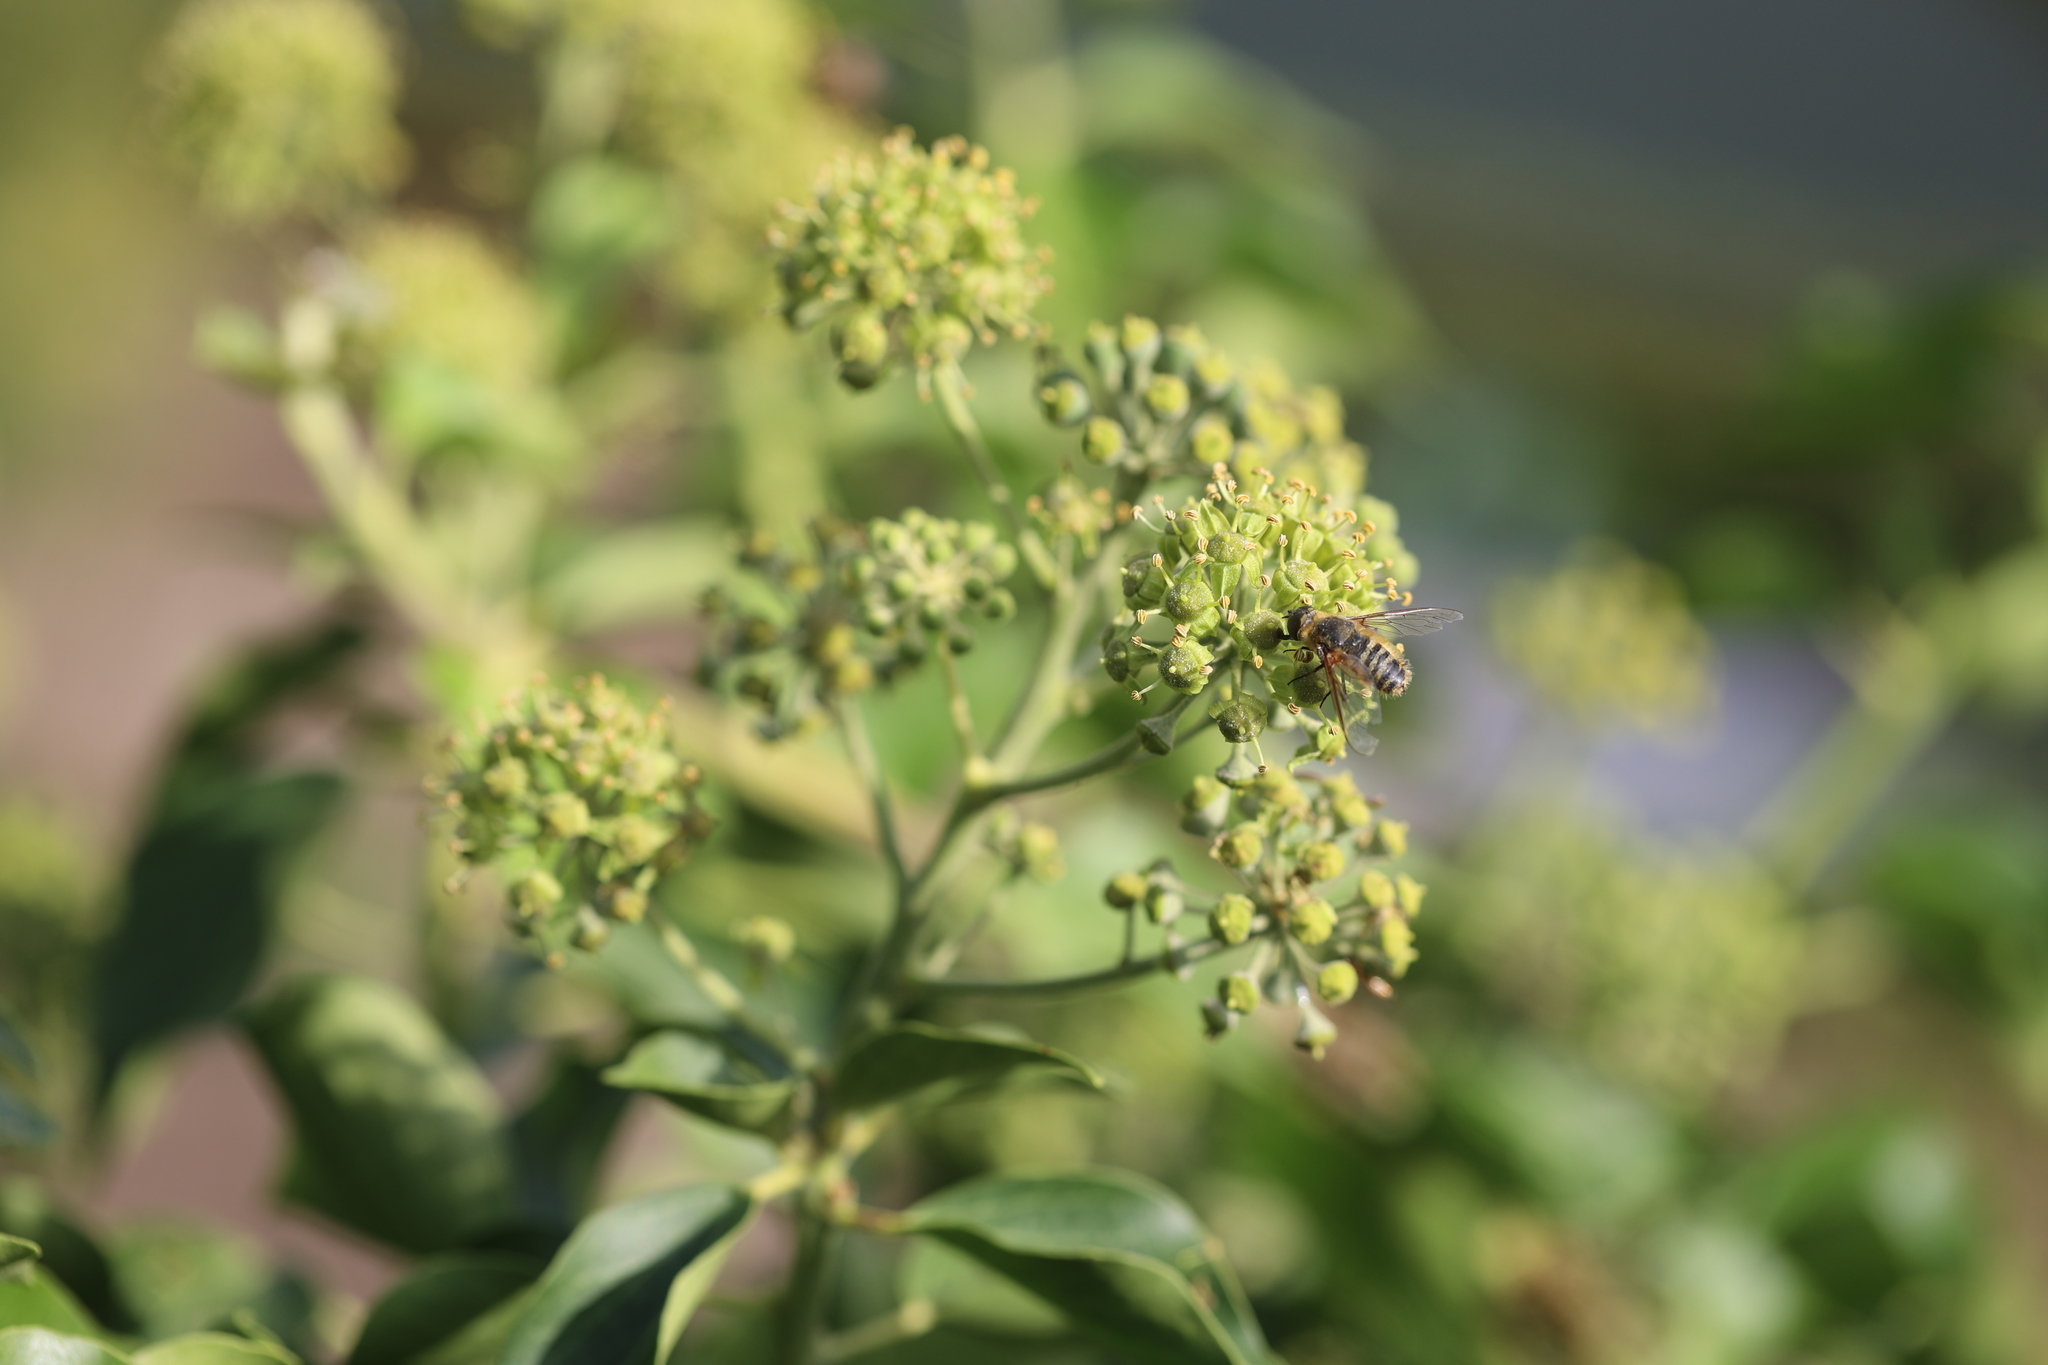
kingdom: Animalia
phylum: Arthropoda
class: Insecta
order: Diptera
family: Bombyliidae
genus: Villa
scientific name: Villa hottentotta
